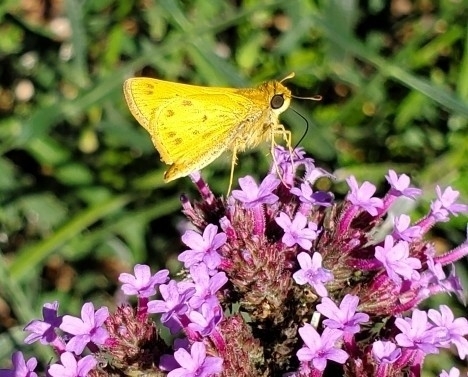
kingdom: Animalia
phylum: Arthropoda
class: Insecta
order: Lepidoptera
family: Hesperiidae
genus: Hylephila
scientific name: Hylephila phyleus
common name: Fiery skipper
